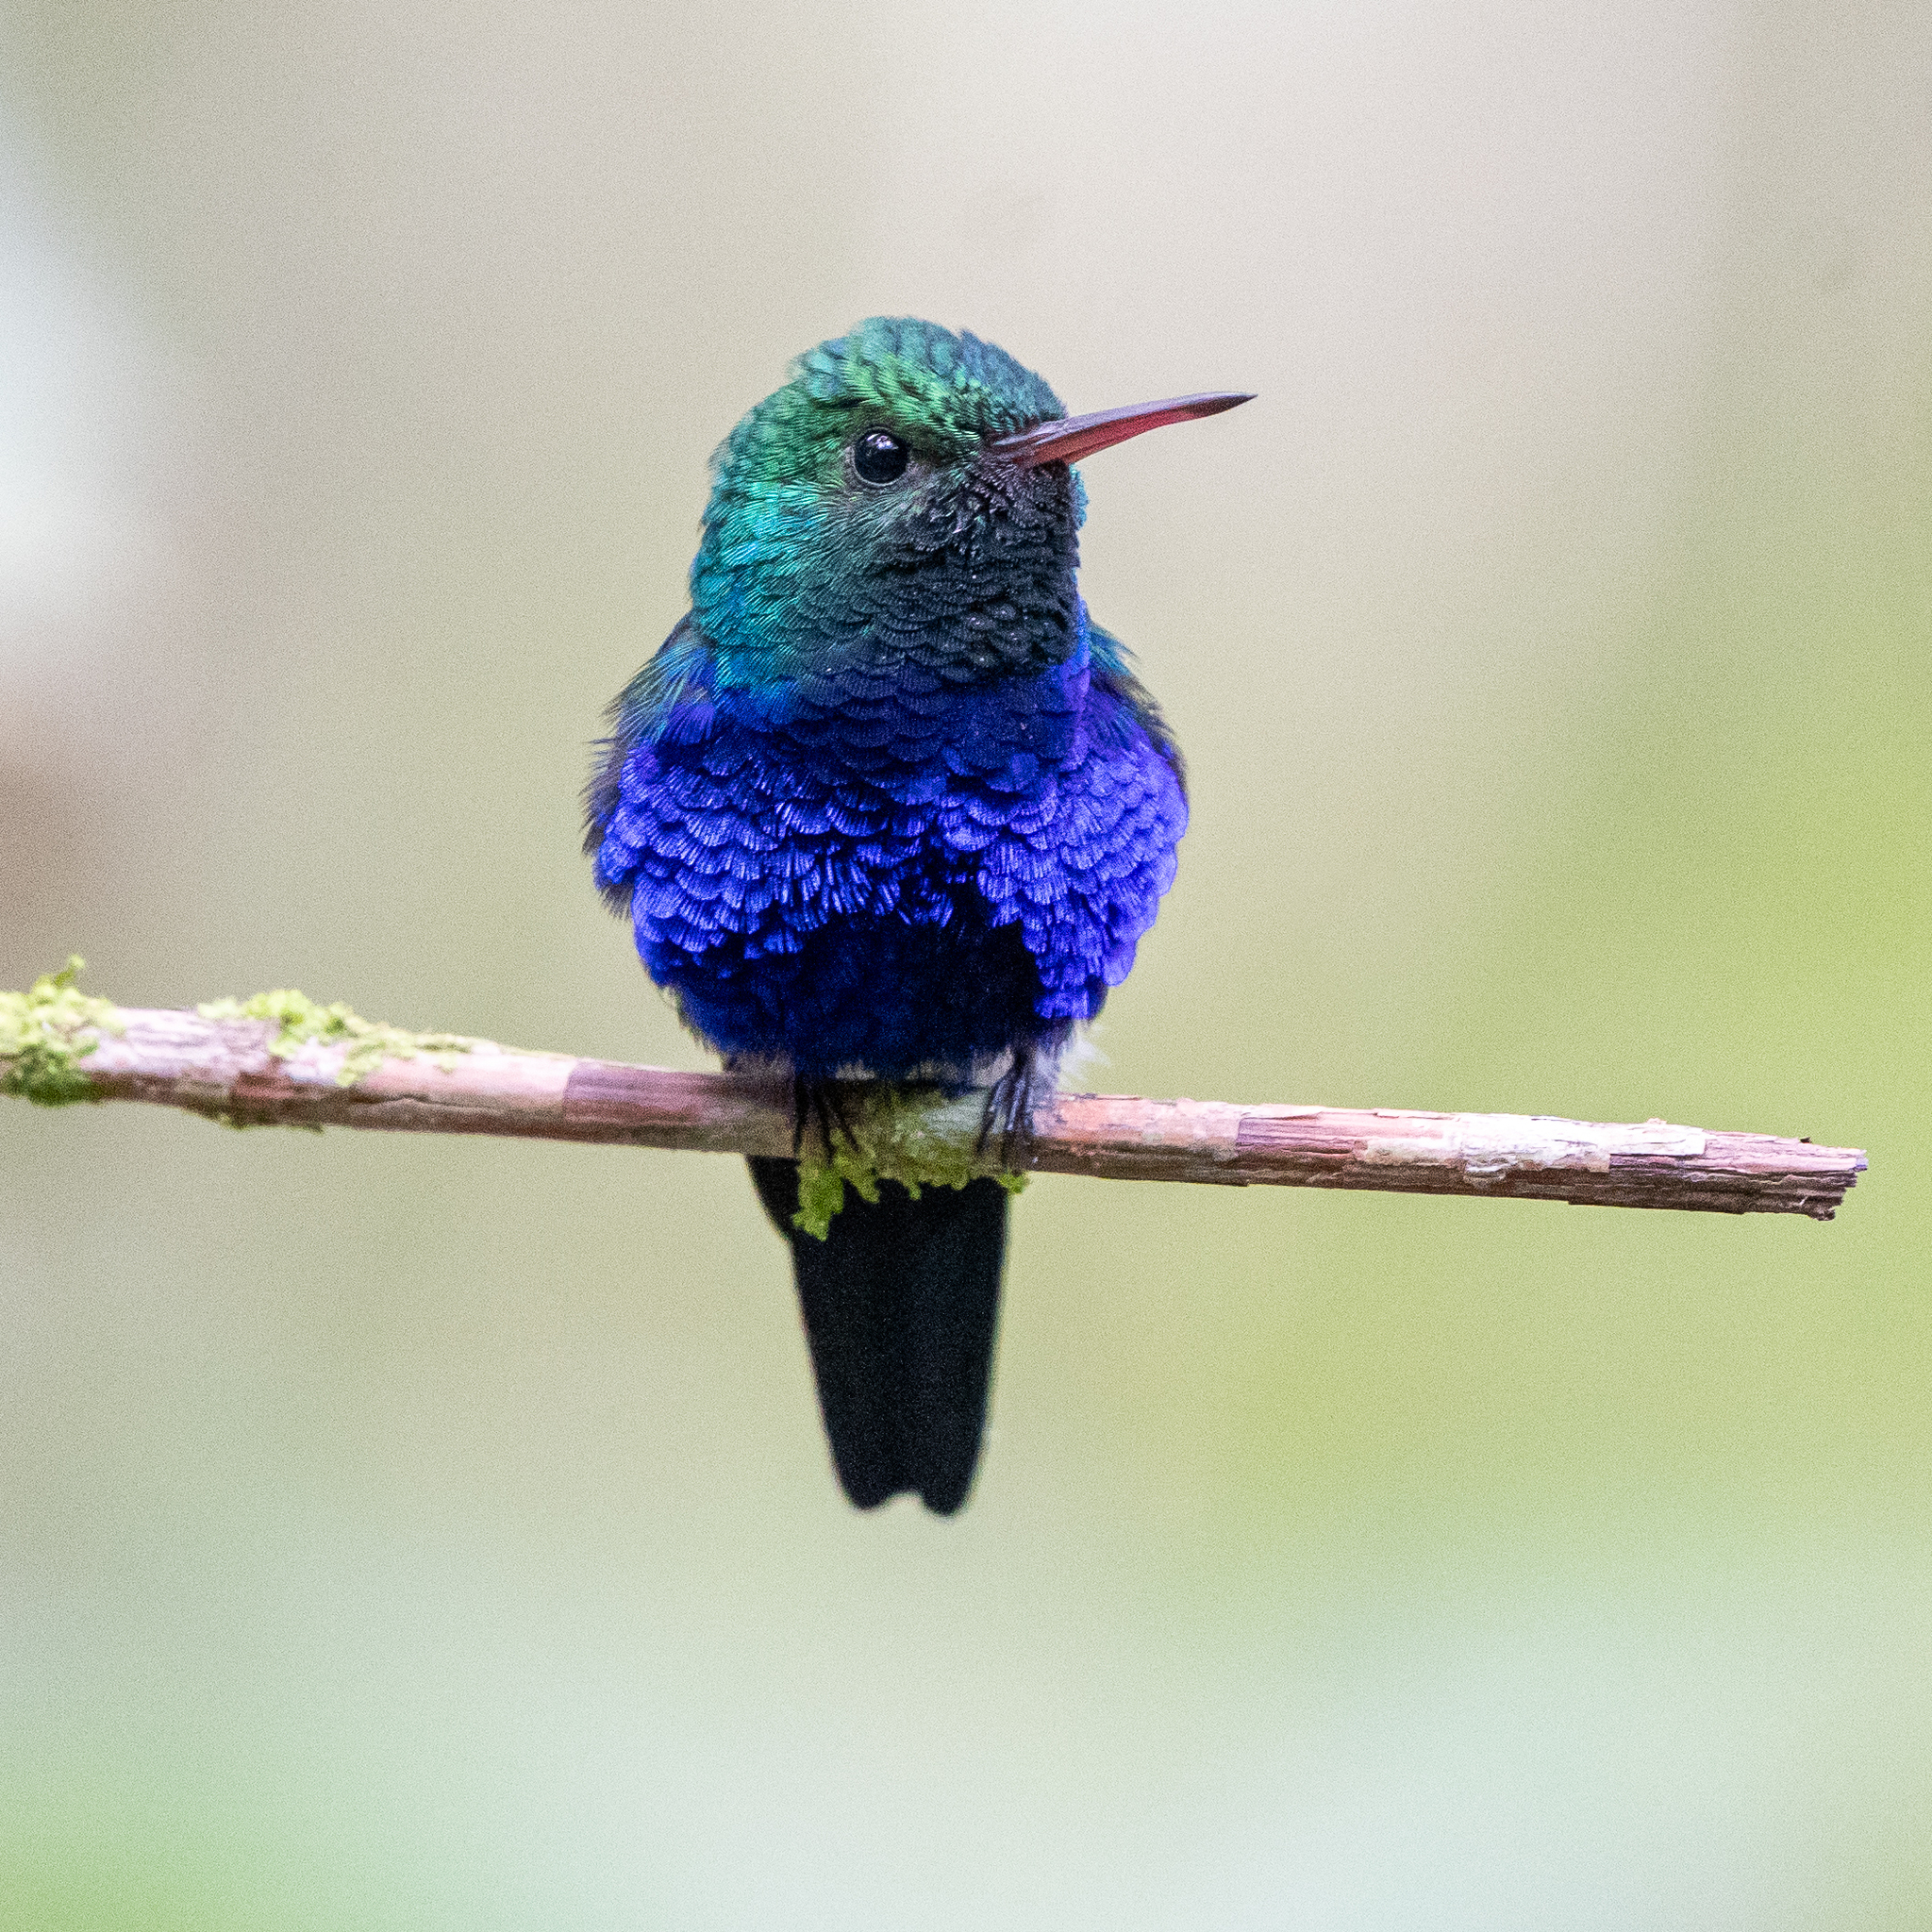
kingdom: Animalia
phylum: Chordata
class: Aves
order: Apodiformes
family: Trochilidae
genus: Chlorestes
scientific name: Chlorestes julie
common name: Violet-bellied hummingbird
